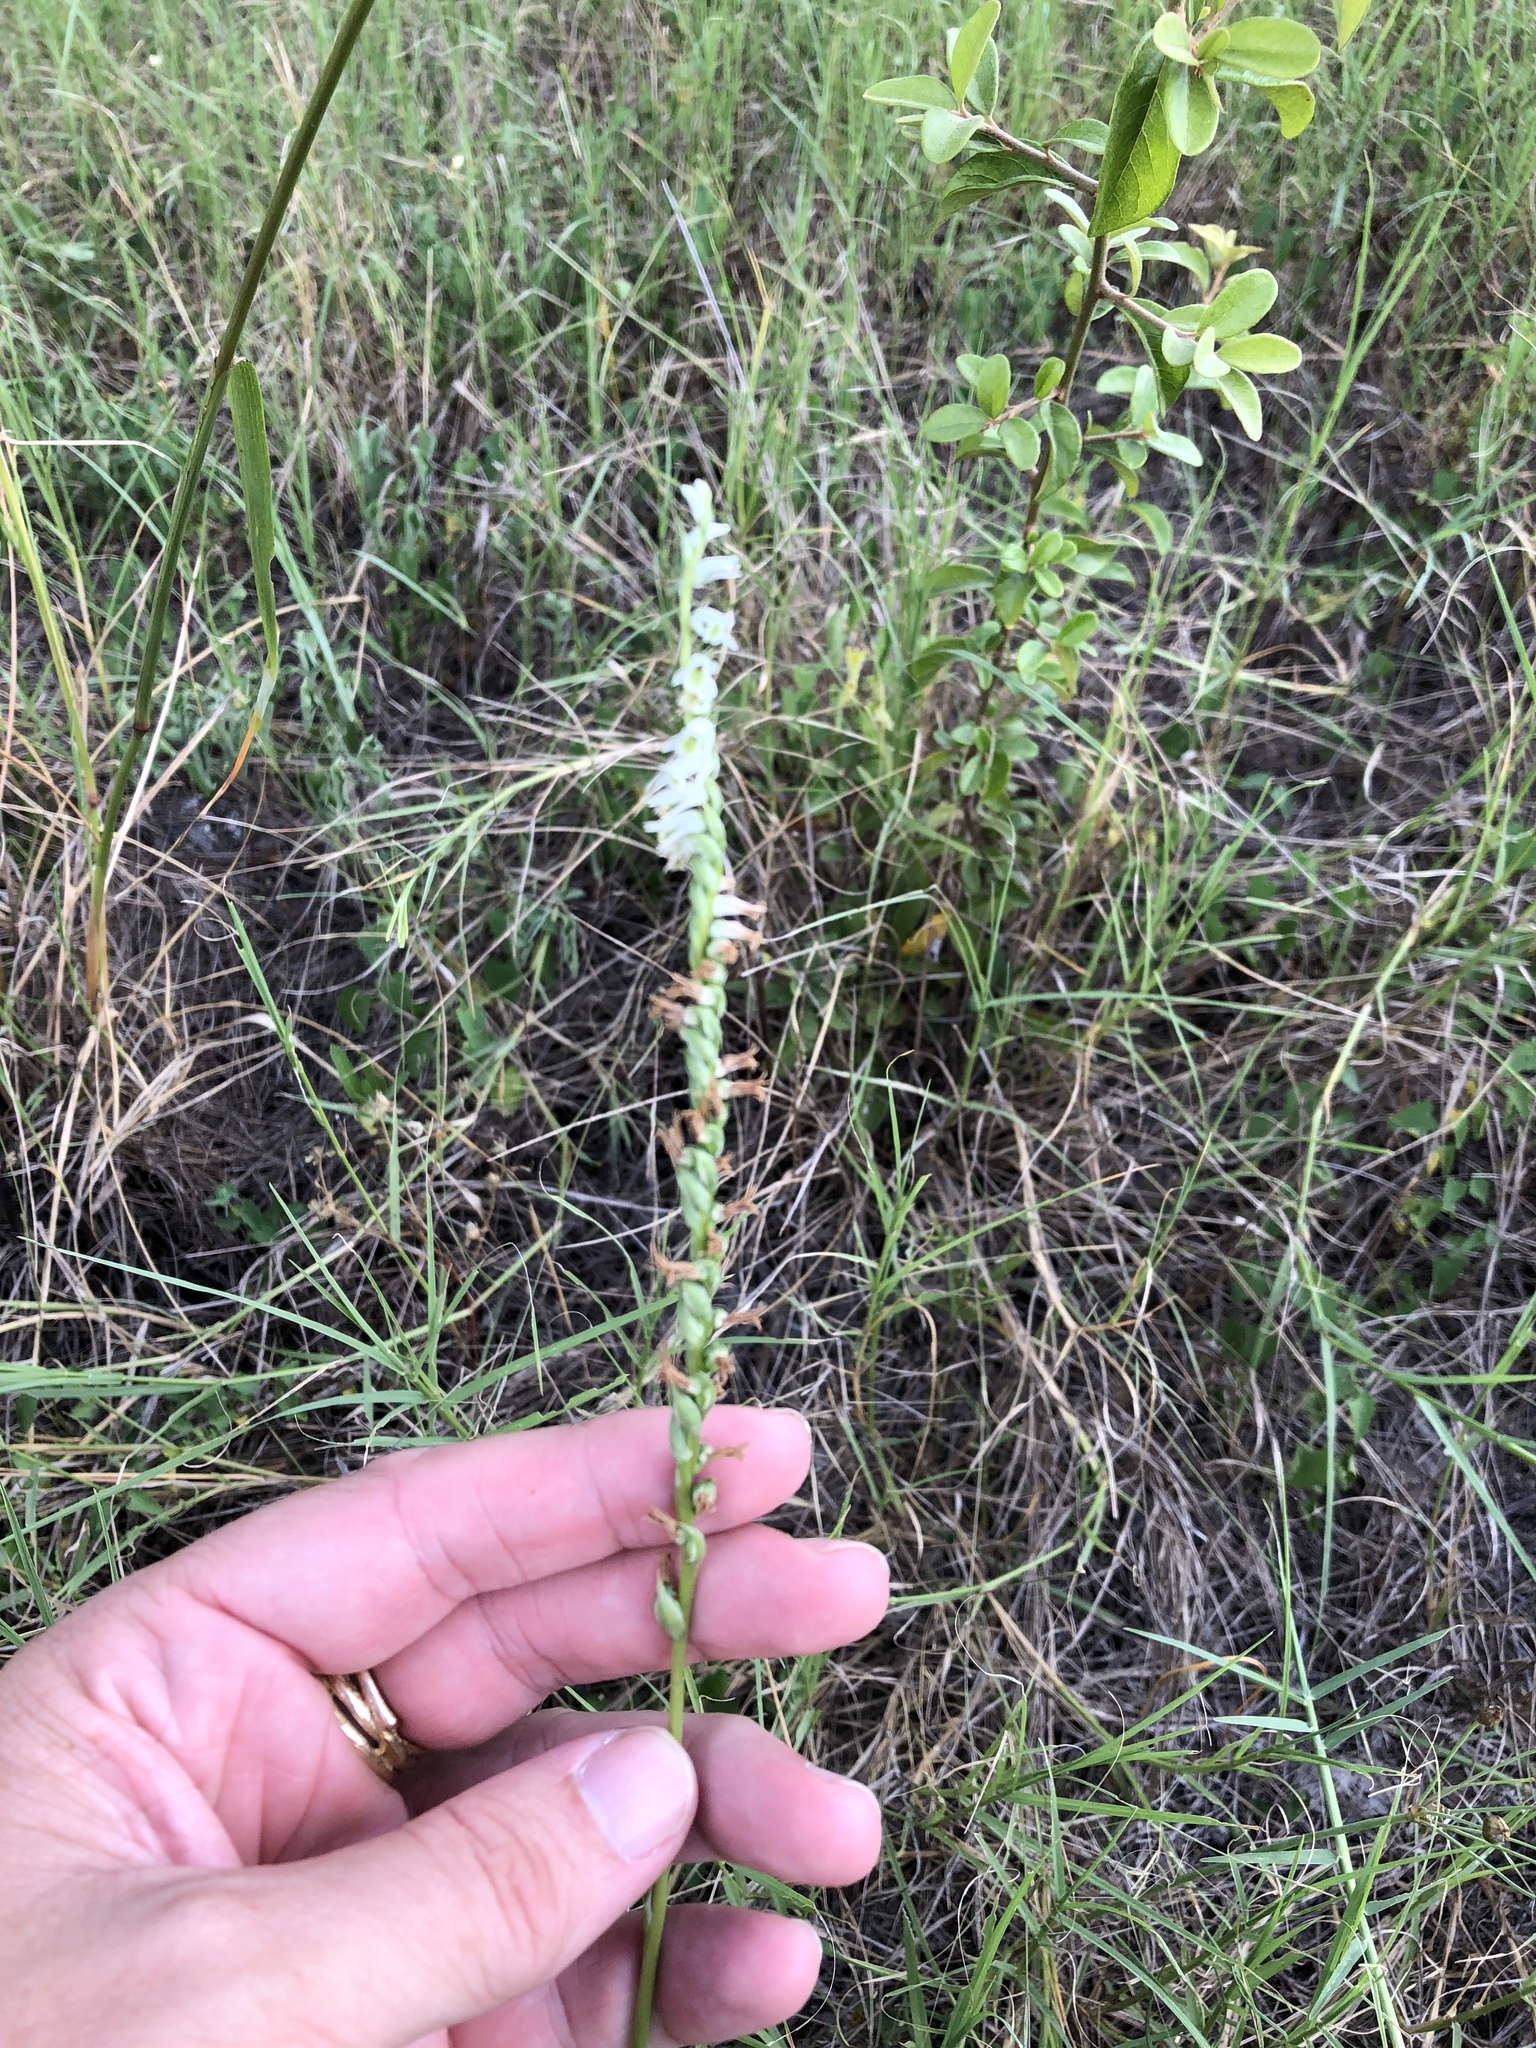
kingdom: Plantae
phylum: Tracheophyta
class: Liliopsida
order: Asparagales
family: Orchidaceae
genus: Spiranthes
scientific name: Spiranthes lacera
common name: Northern slender ladies'-tresses
